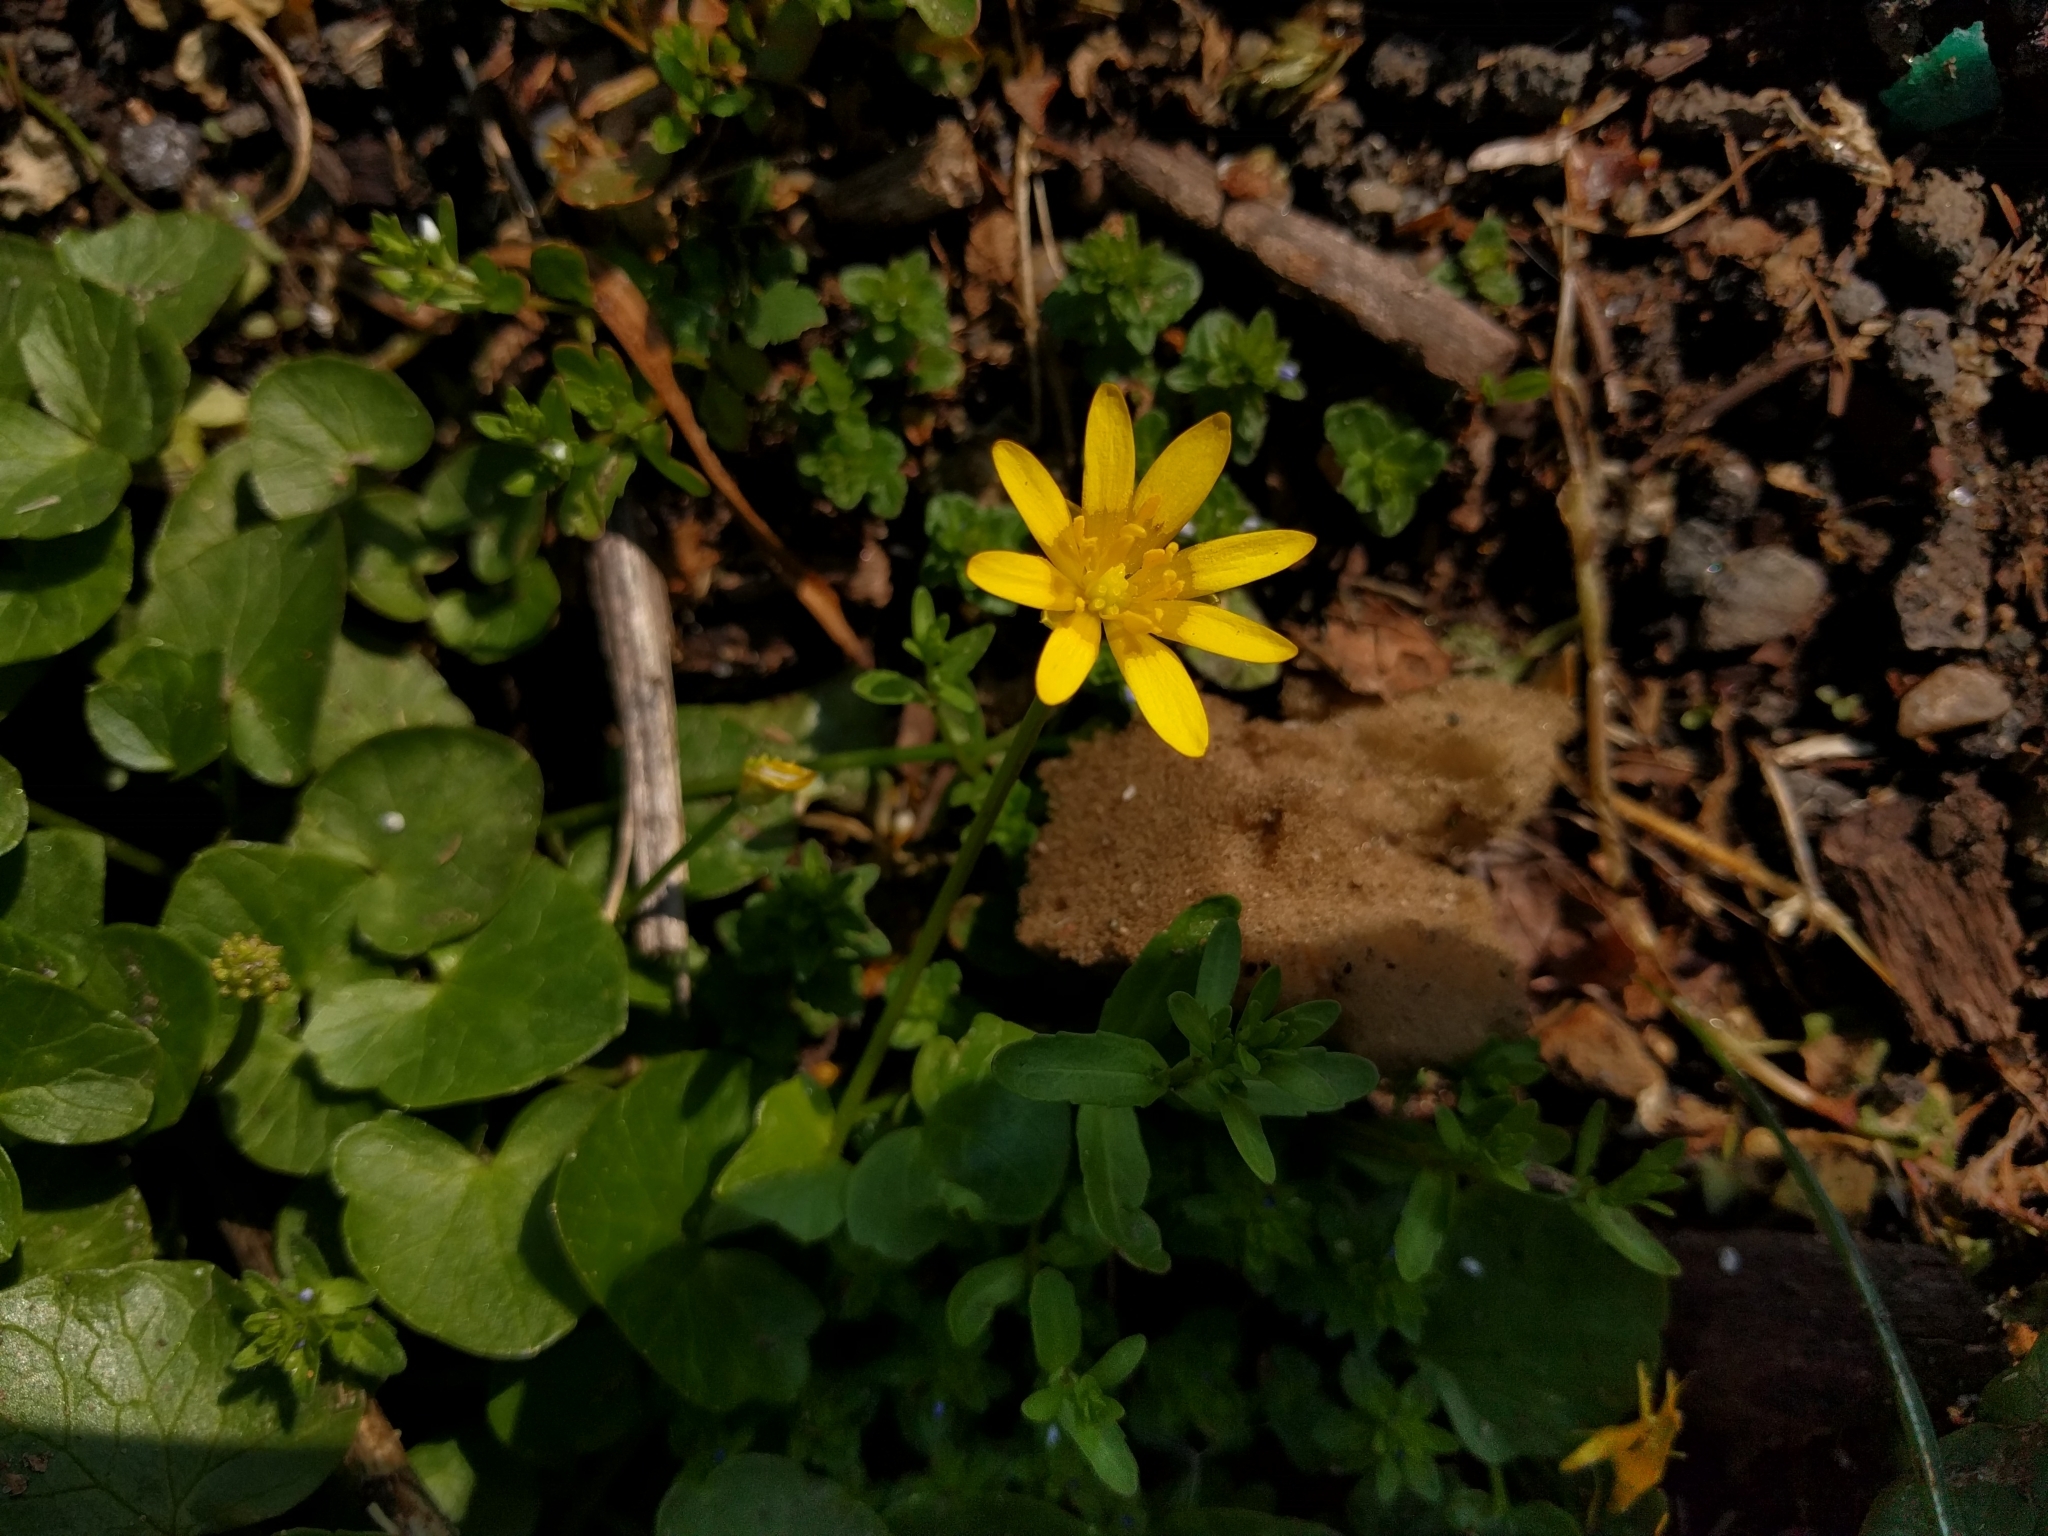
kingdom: Plantae
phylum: Tracheophyta
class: Magnoliopsida
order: Ranunculales
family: Ranunculaceae
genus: Ficaria
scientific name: Ficaria verna
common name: Lesser celandine
